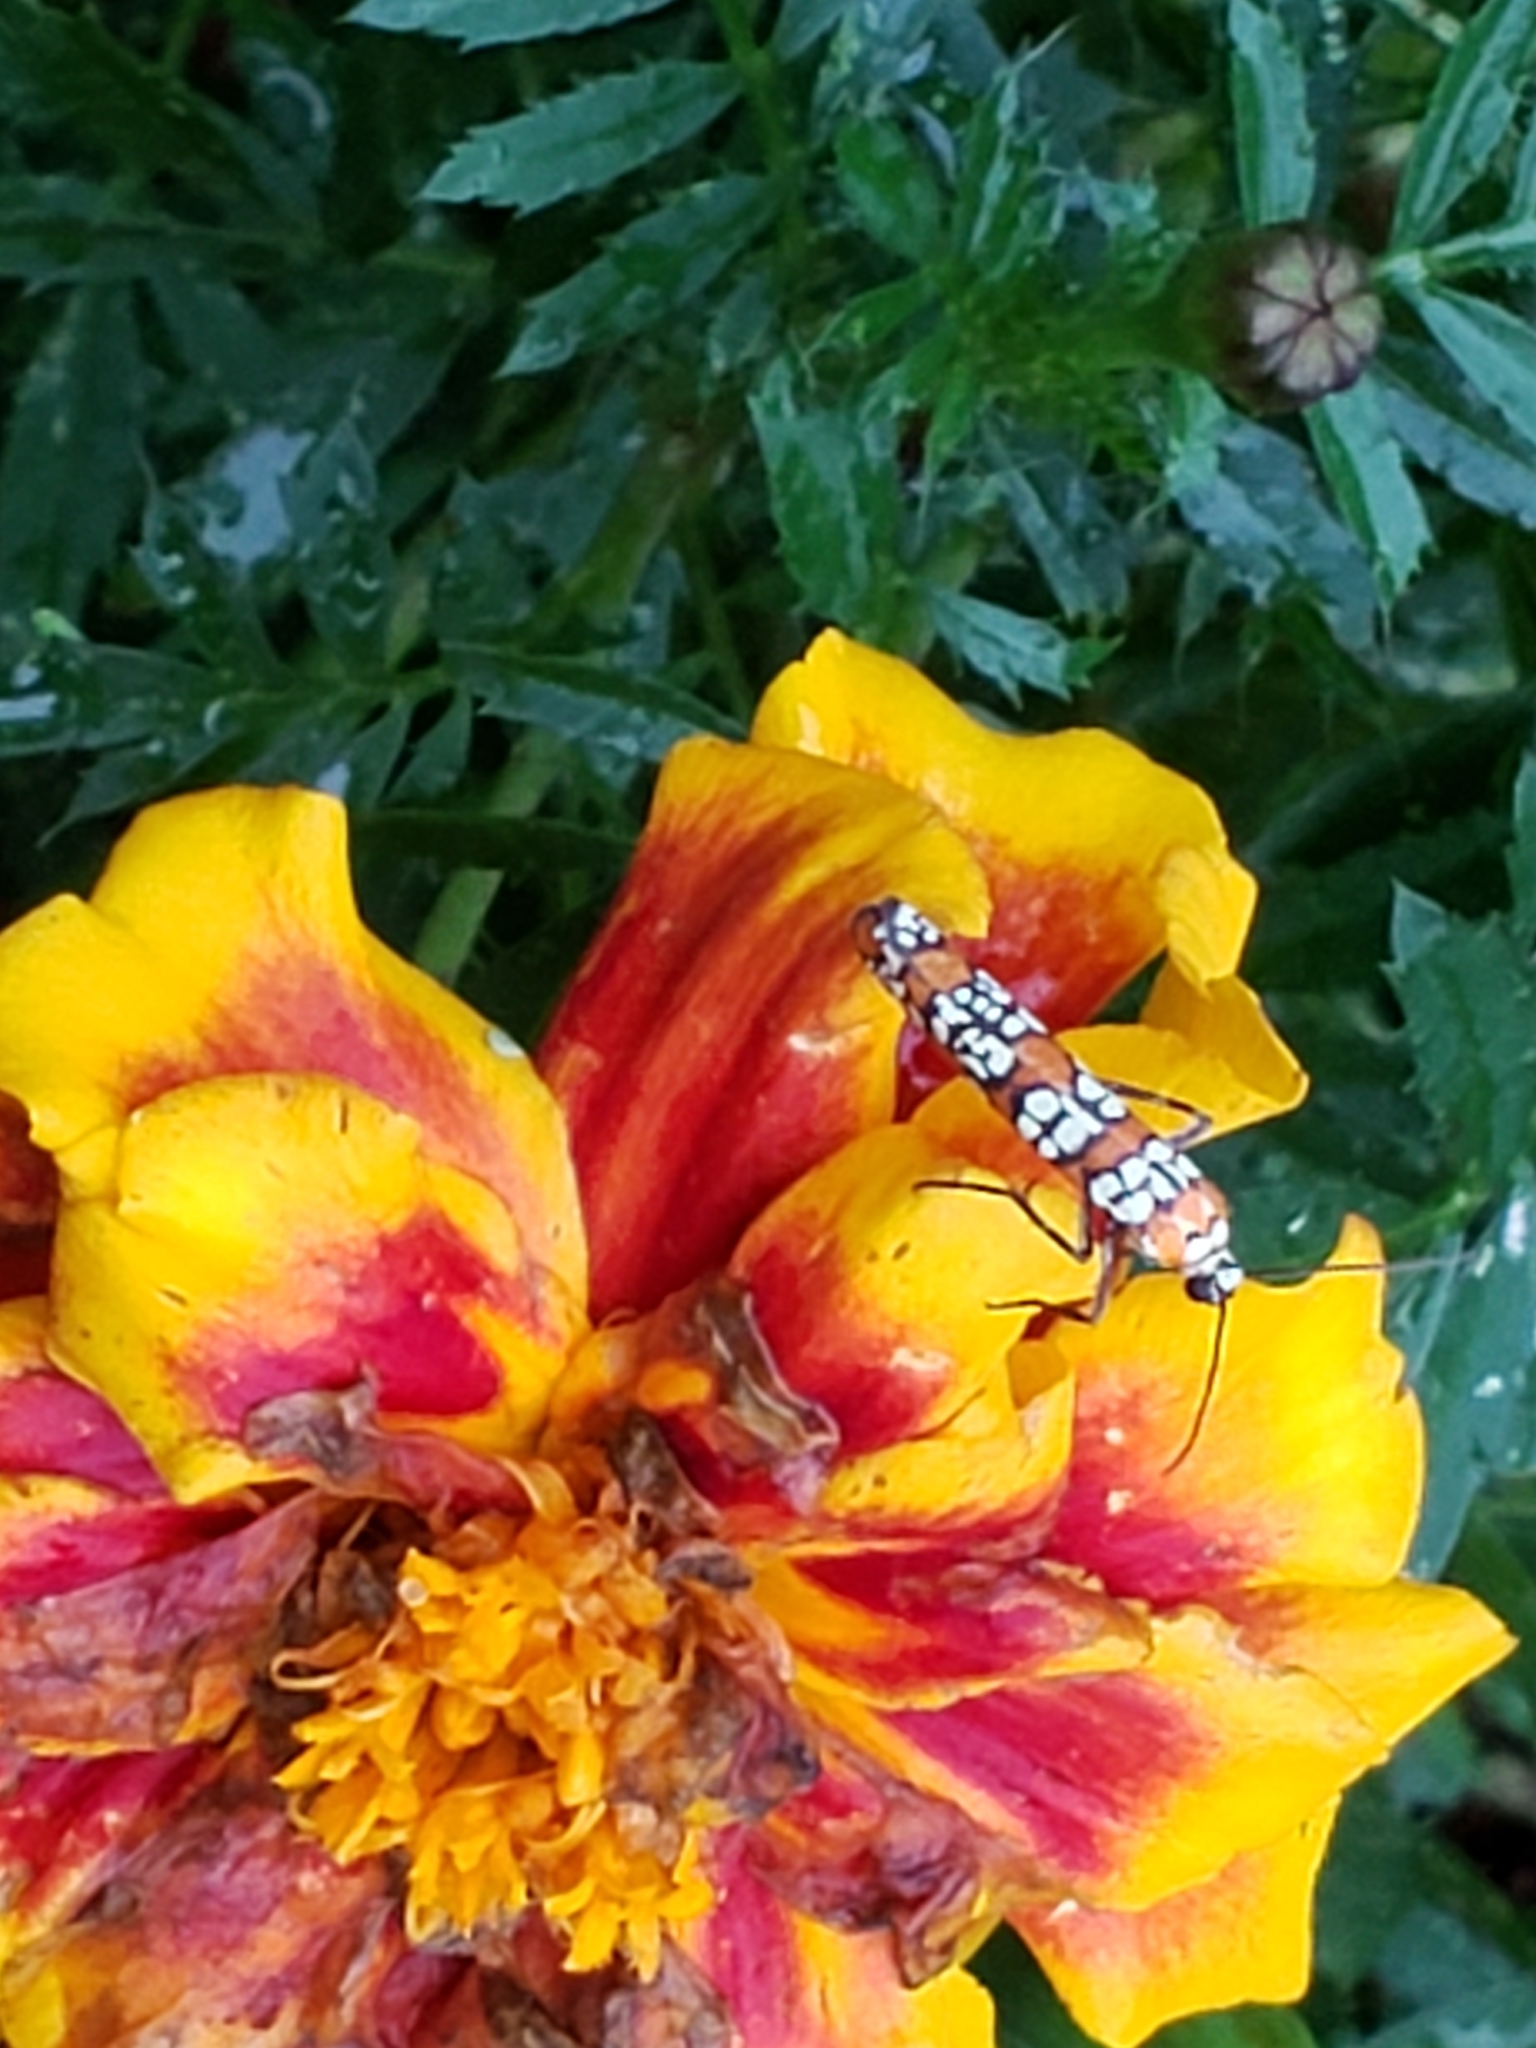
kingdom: Animalia
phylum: Arthropoda
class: Insecta
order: Lepidoptera
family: Attevidae
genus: Atteva
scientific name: Atteva punctella
